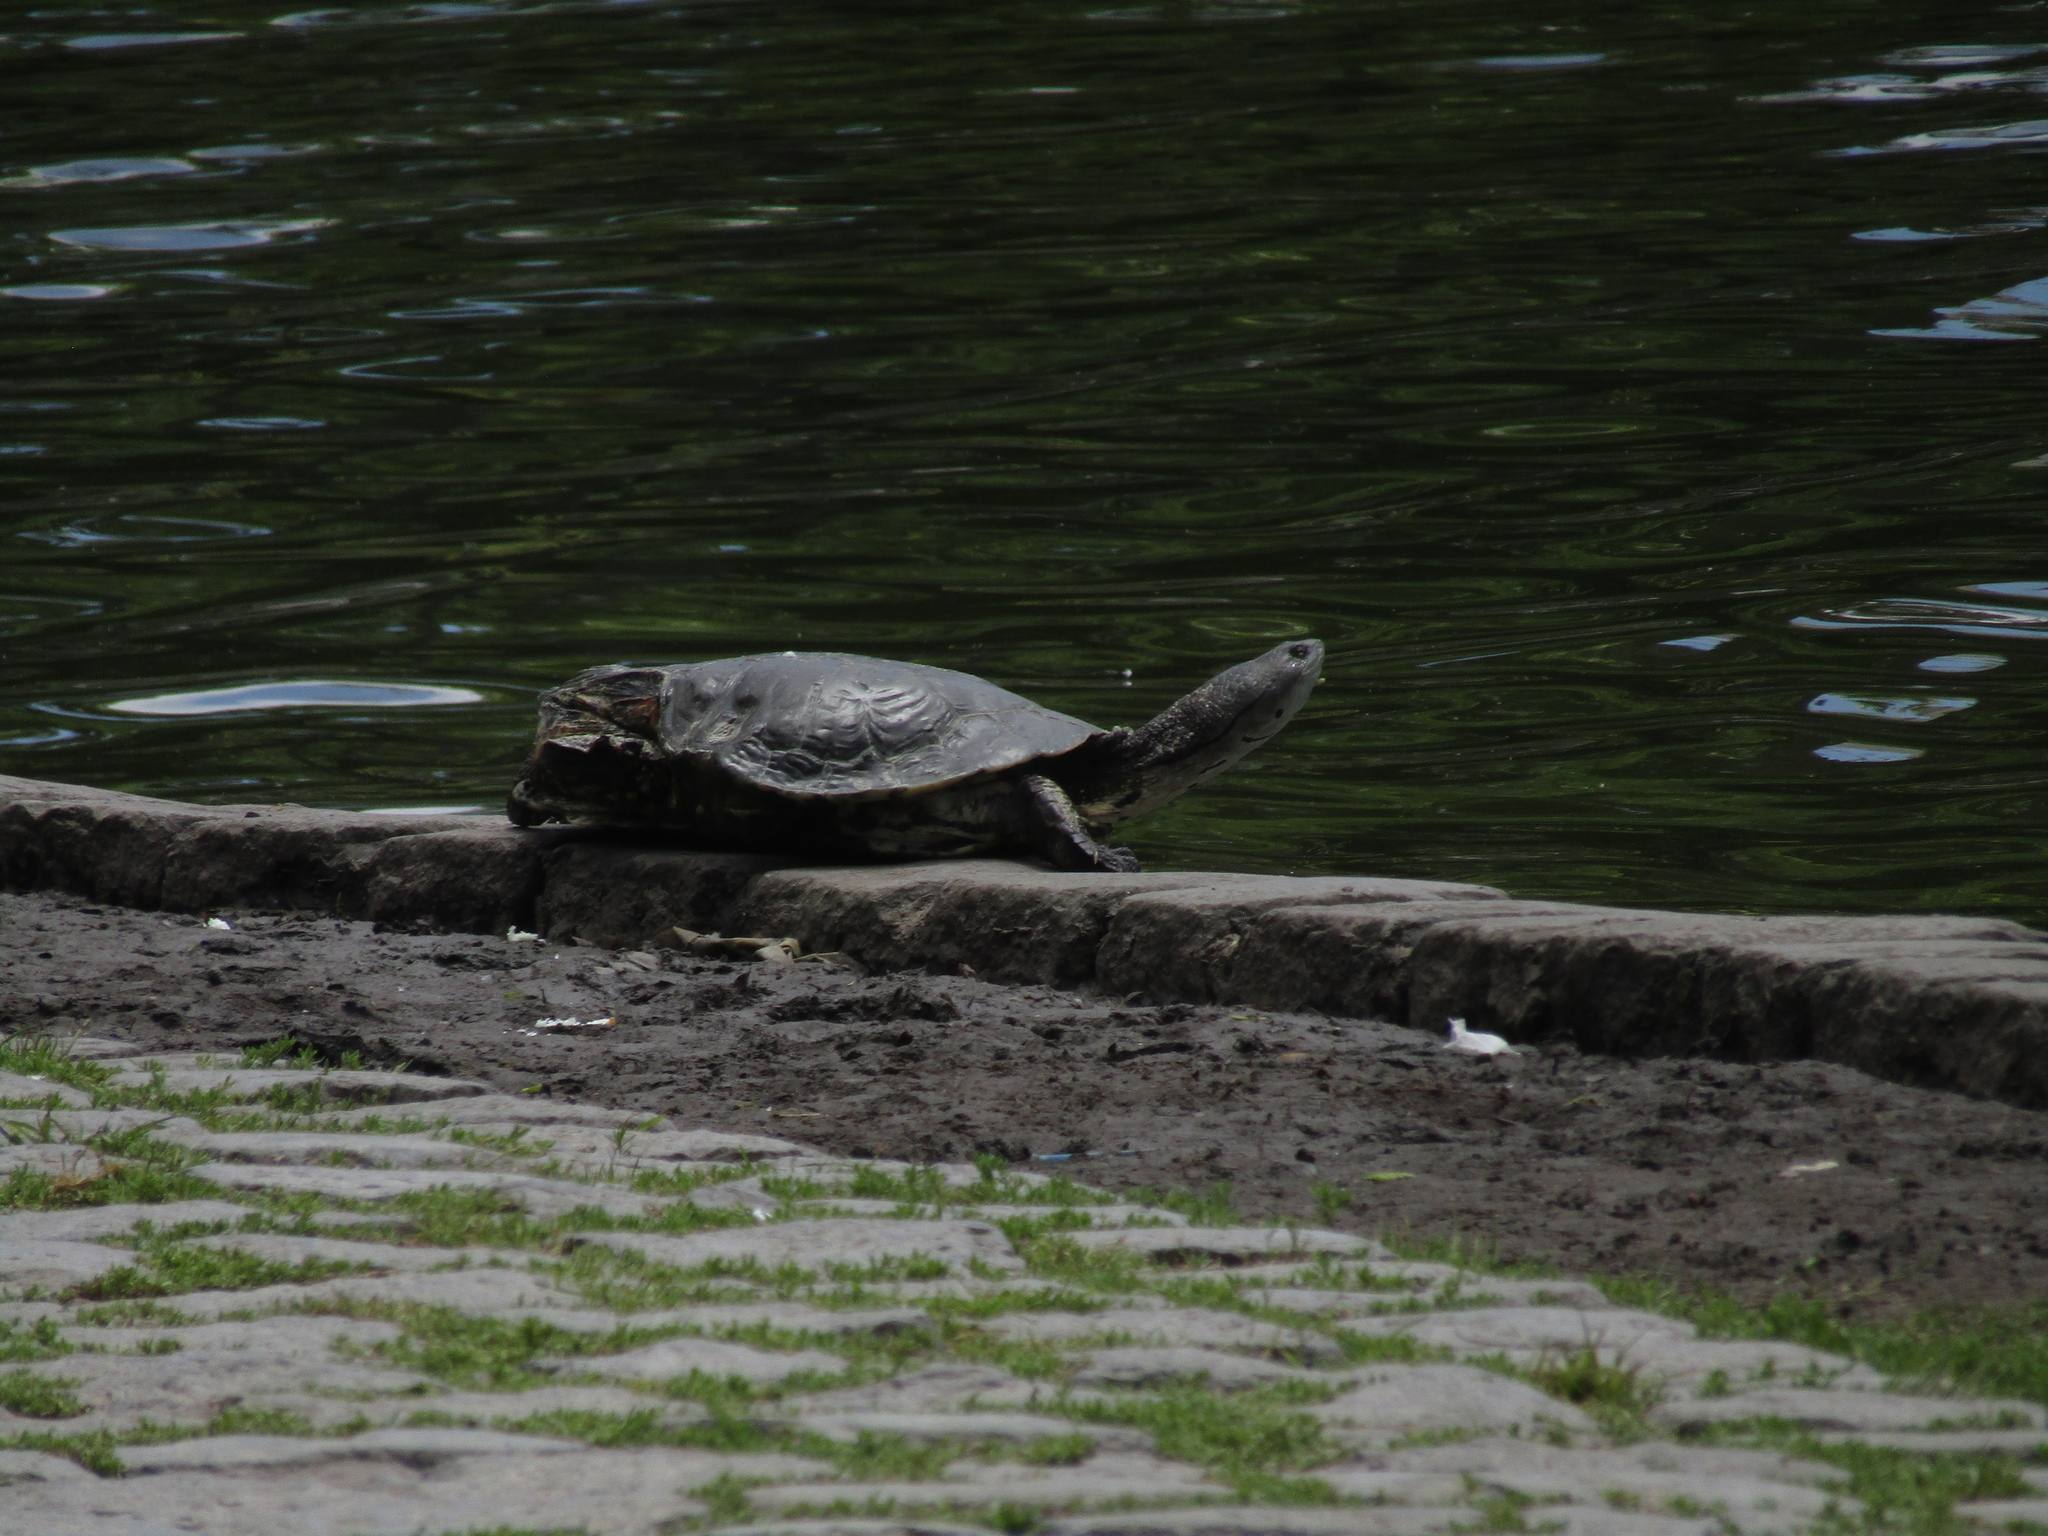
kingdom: Animalia
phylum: Chordata
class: Testudines
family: Chelidae
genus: Phrynops
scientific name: Phrynops hilarii
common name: Side-necked turtle of saint hillaire
